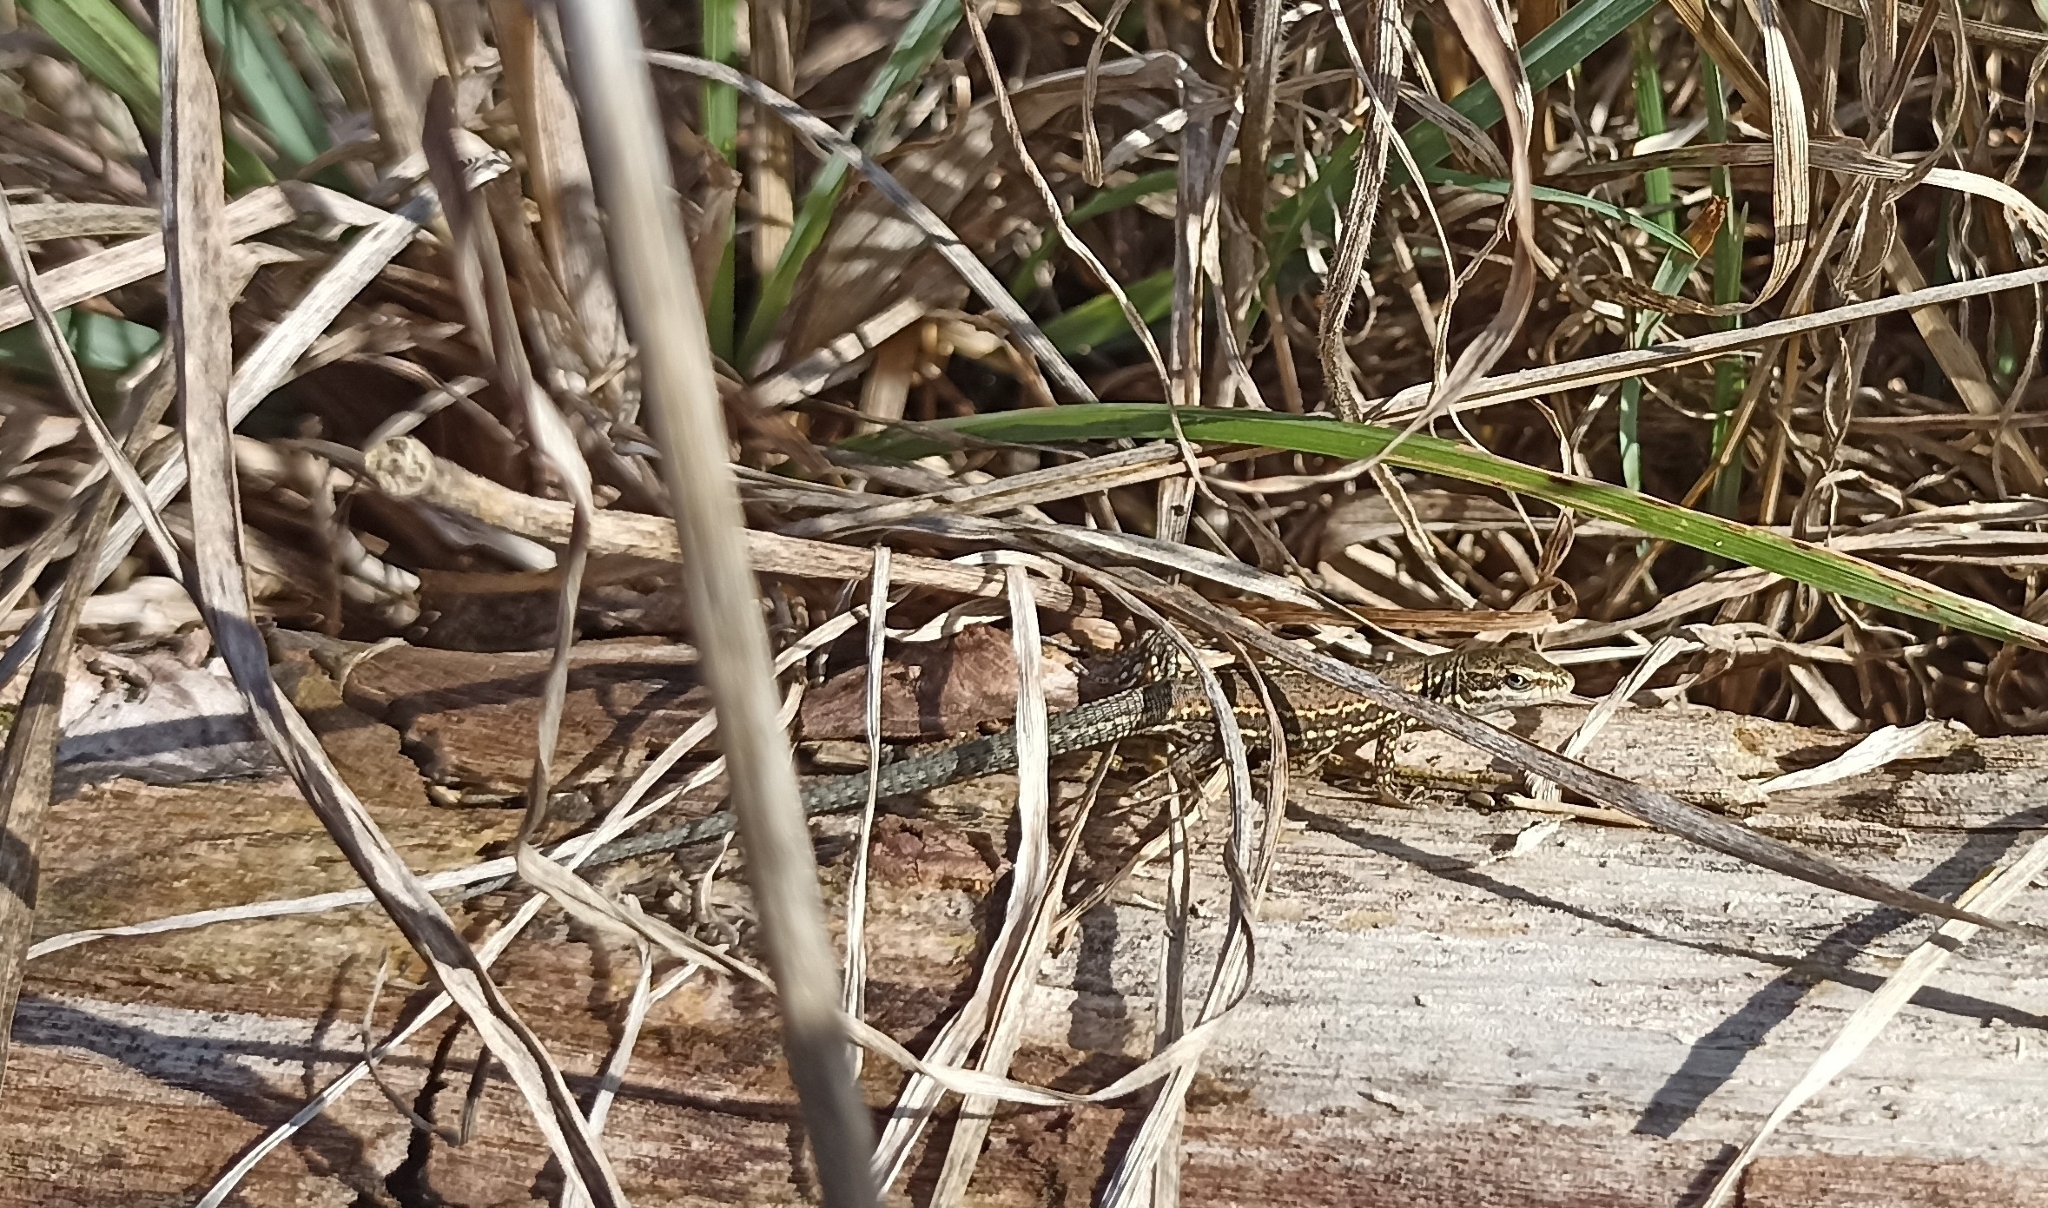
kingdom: Animalia
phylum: Chordata
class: Squamata
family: Lacertidae
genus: Podarcis
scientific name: Podarcis muralis
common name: Common wall lizard
